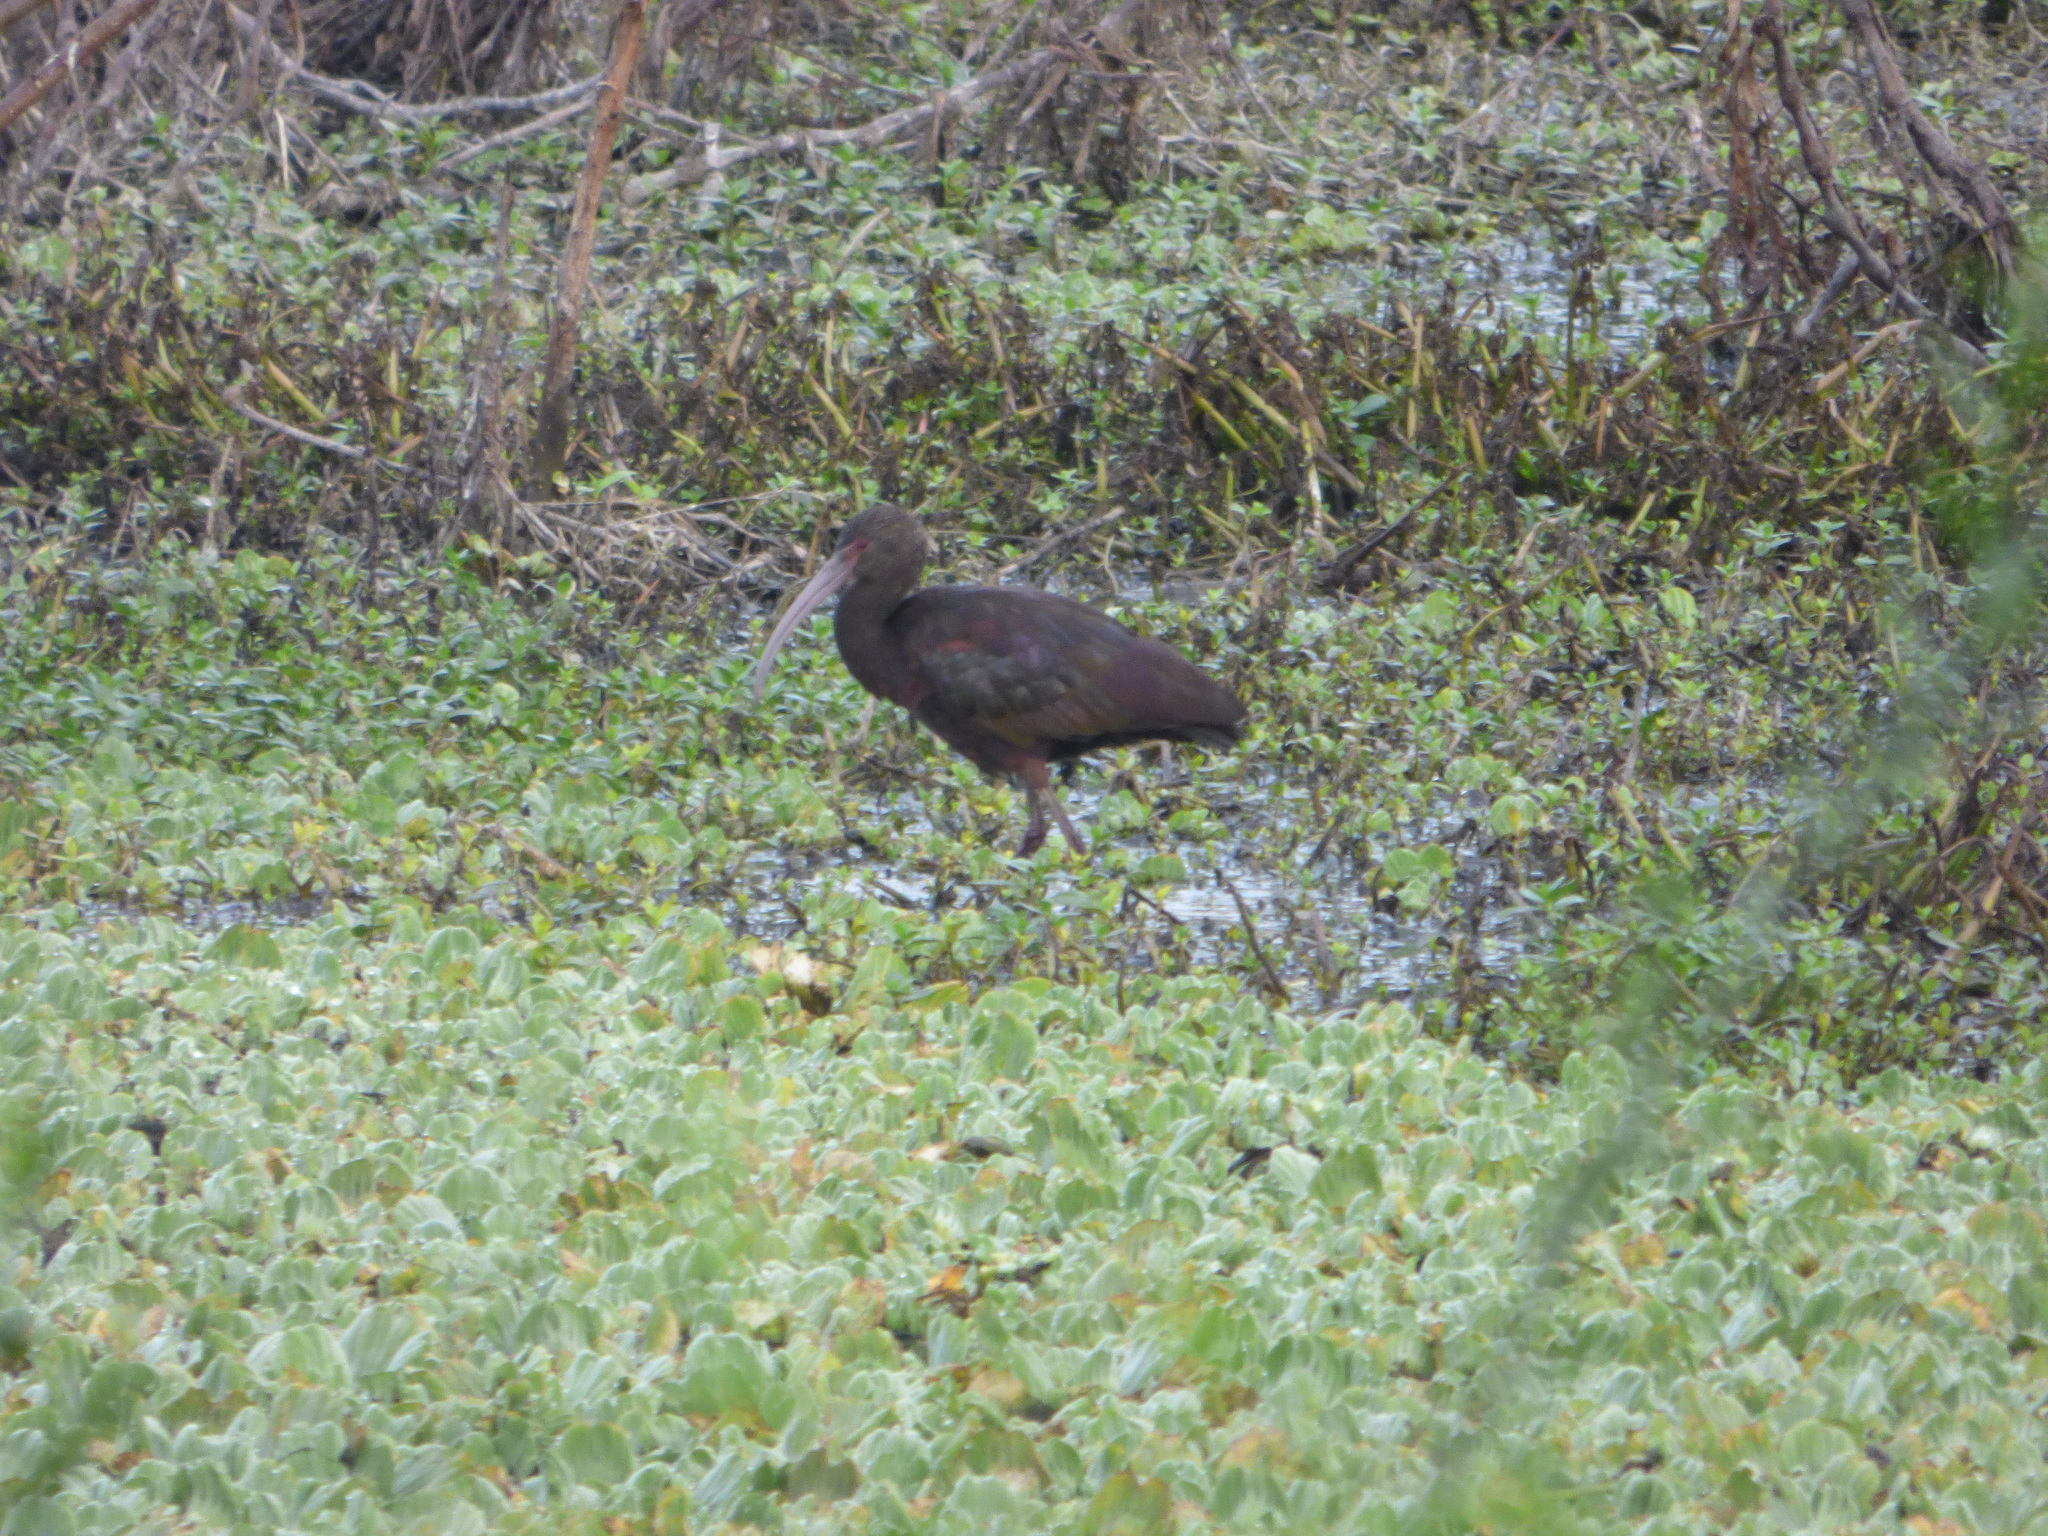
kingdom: Animalia
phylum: Chordata
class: Aves
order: Pelecaniformes
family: Threskiornithidae
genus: Plegadis
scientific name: Plegadis chihi
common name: White-faced ibis
